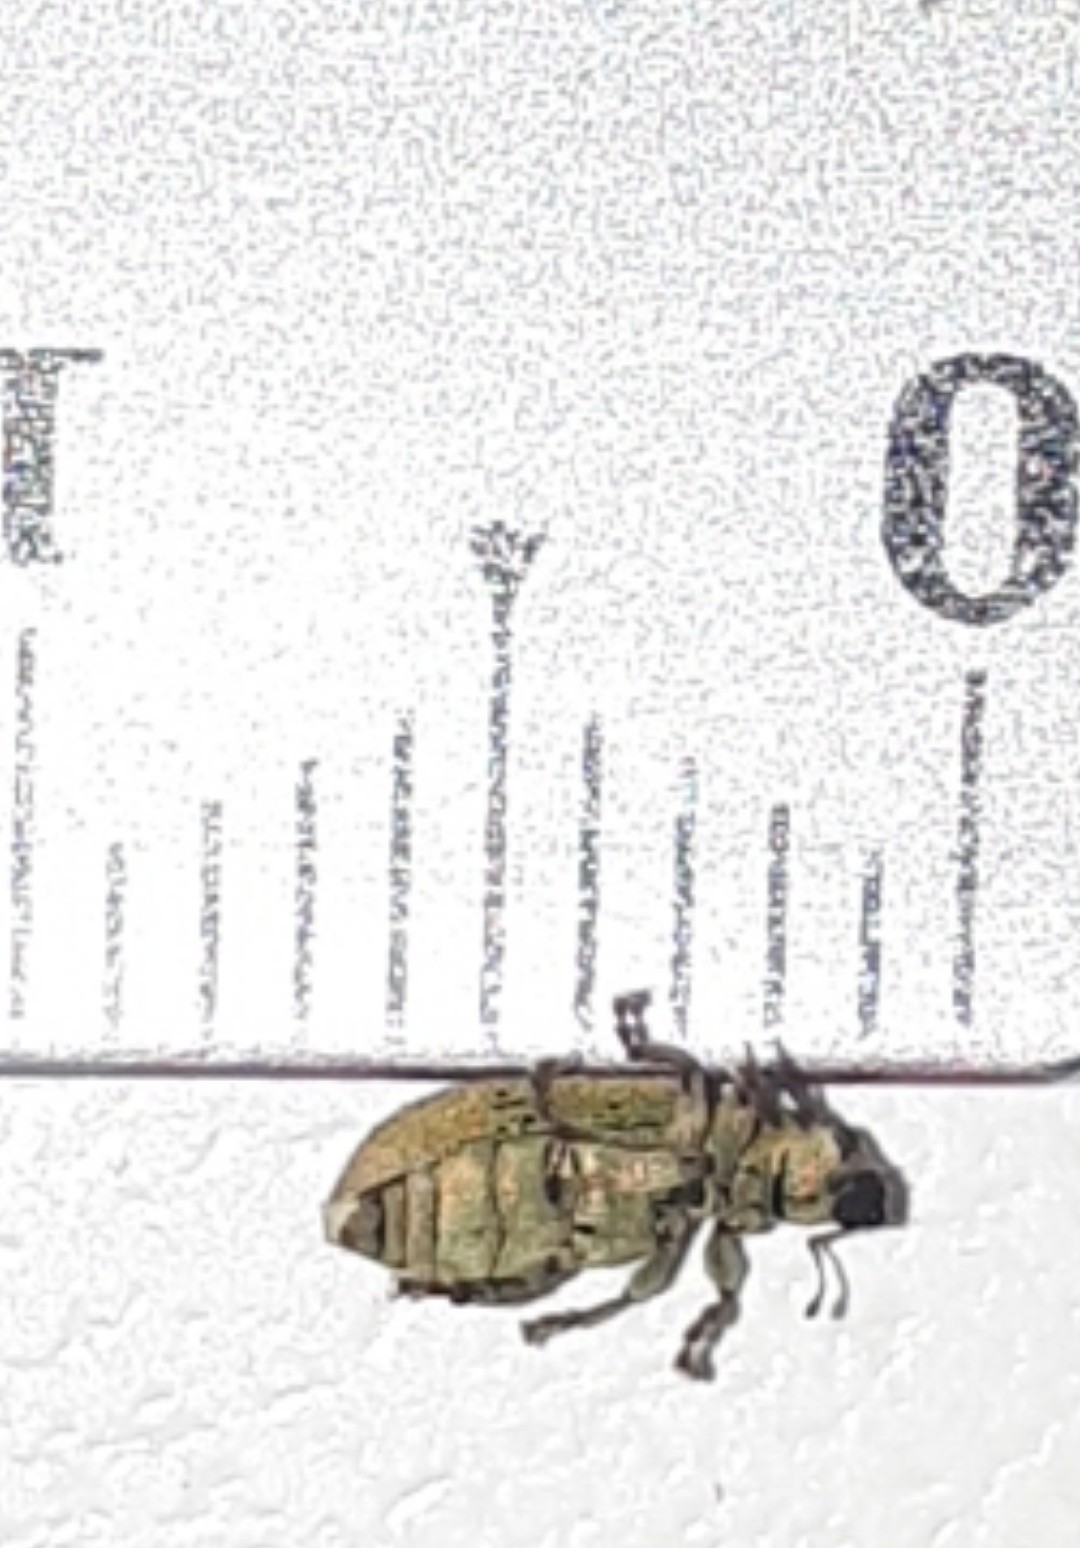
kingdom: Animalia
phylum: Arthropoda
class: Insecta
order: Coleoptera
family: Curculionidae
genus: Pachyrhinus
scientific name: Pachyrhinus lethierryi
